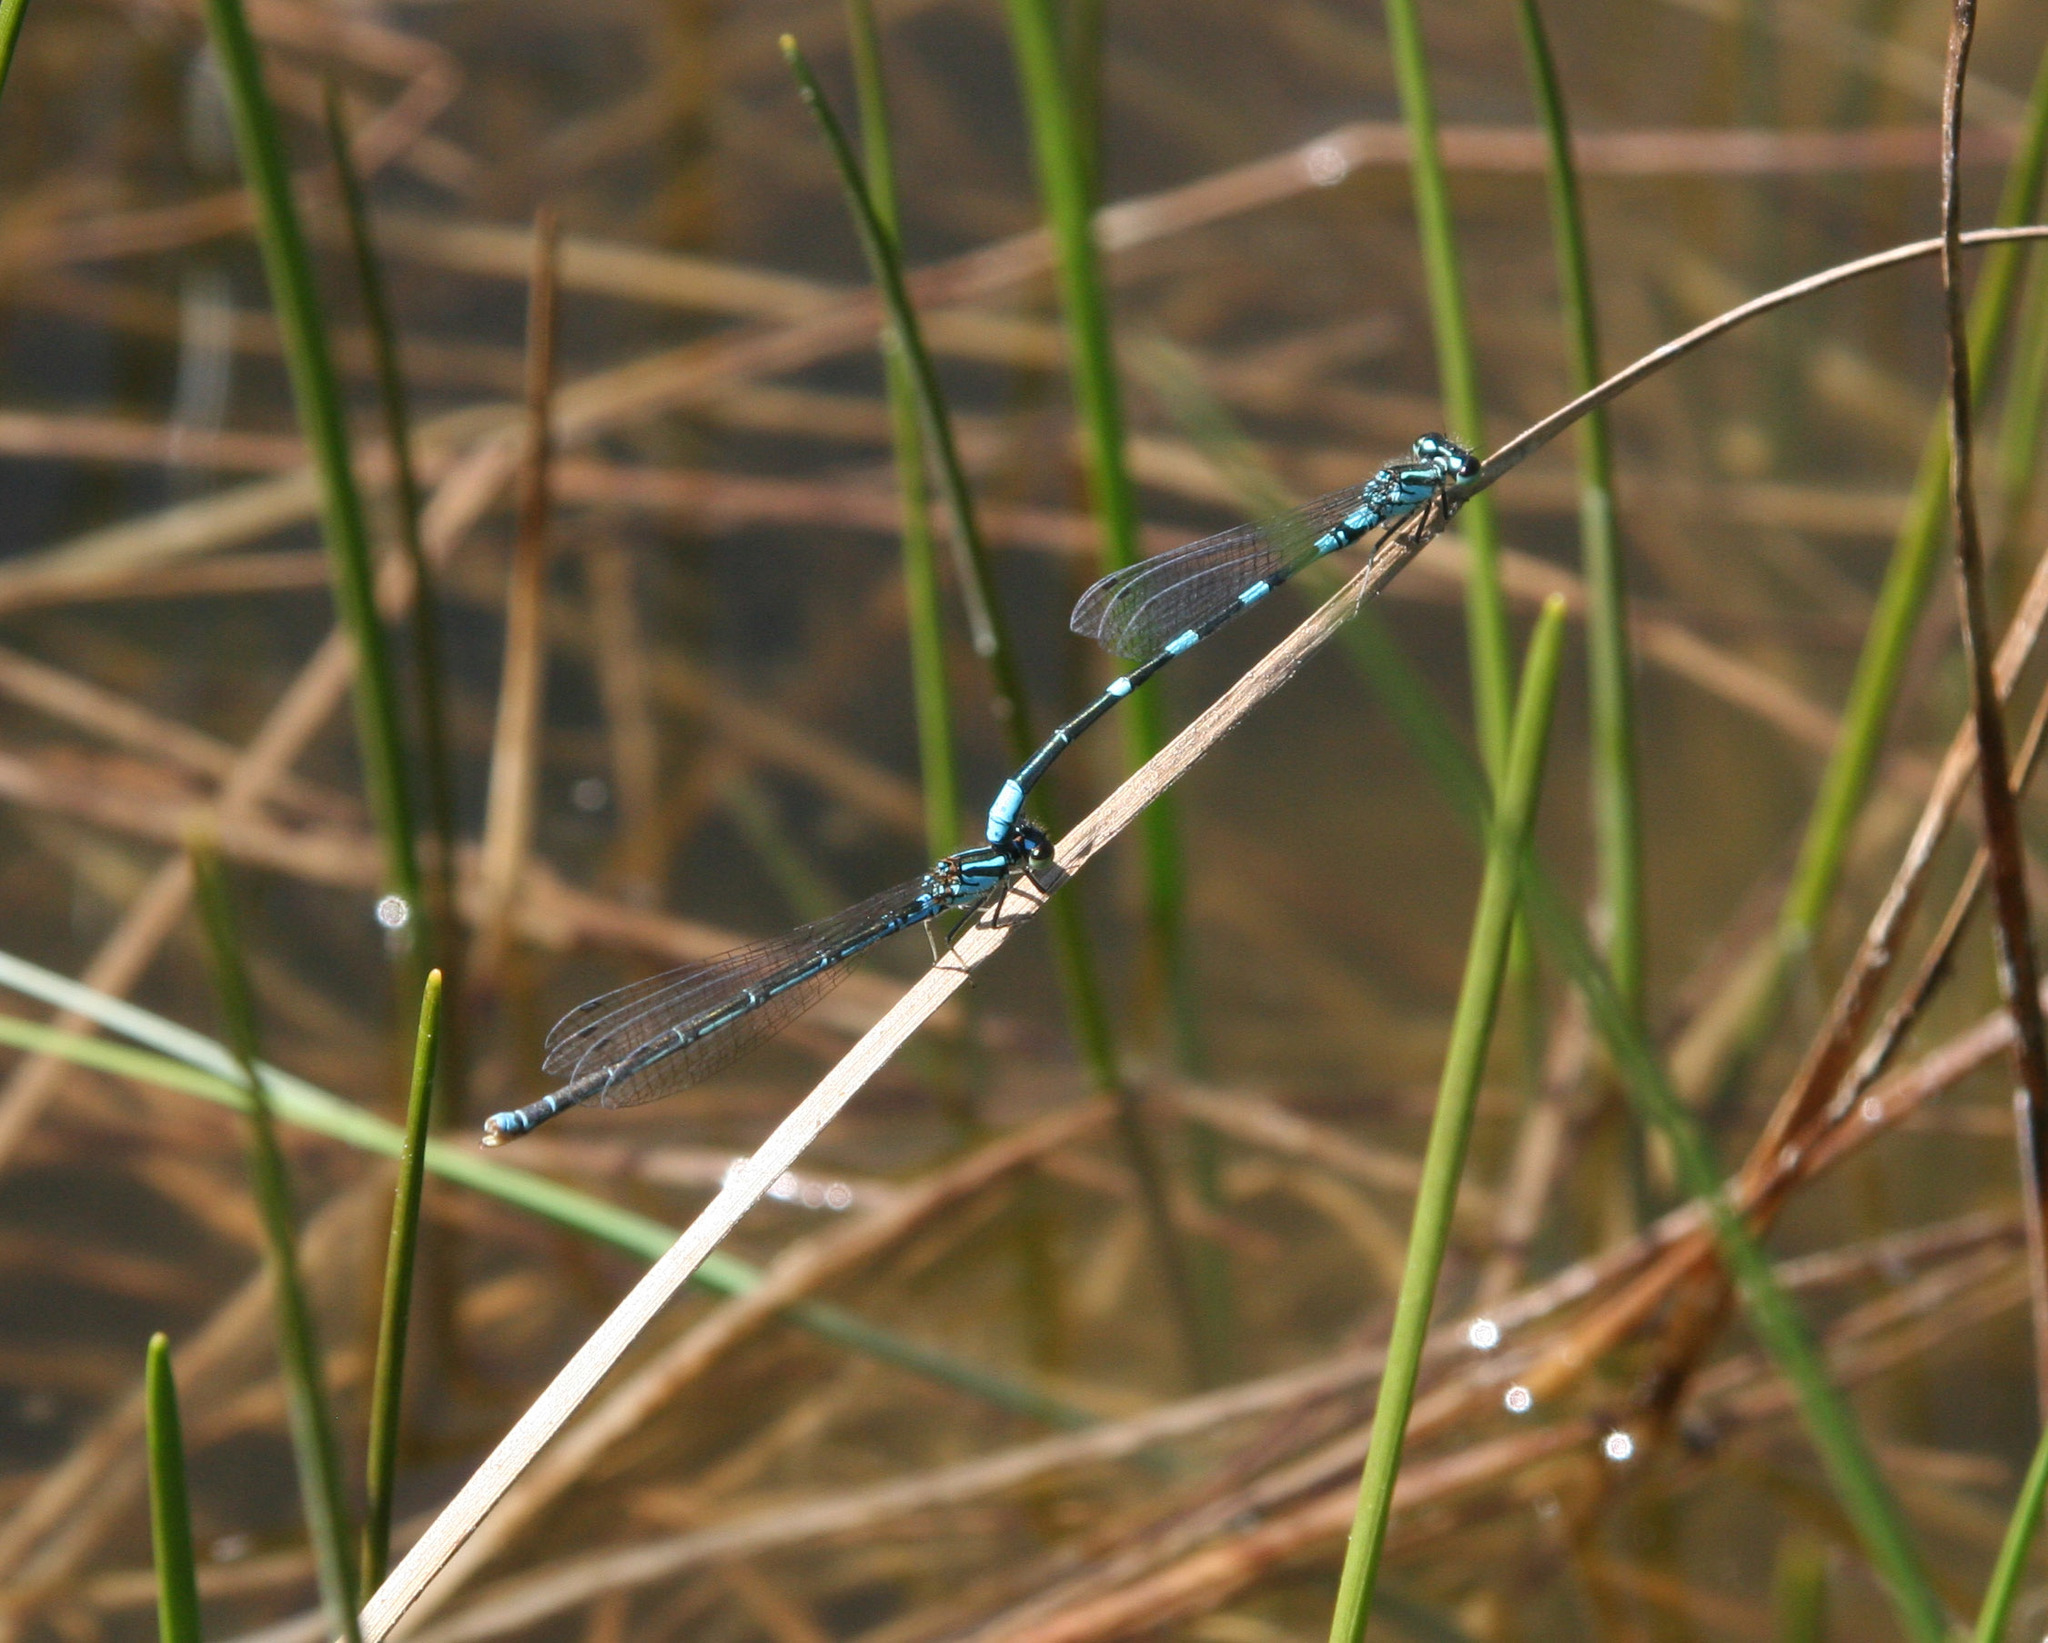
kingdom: Animalia
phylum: Arthropoda
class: Insecta
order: Odonata
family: Coenagrionidae
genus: Coenagrion
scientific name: Coenagrion johanssoni
